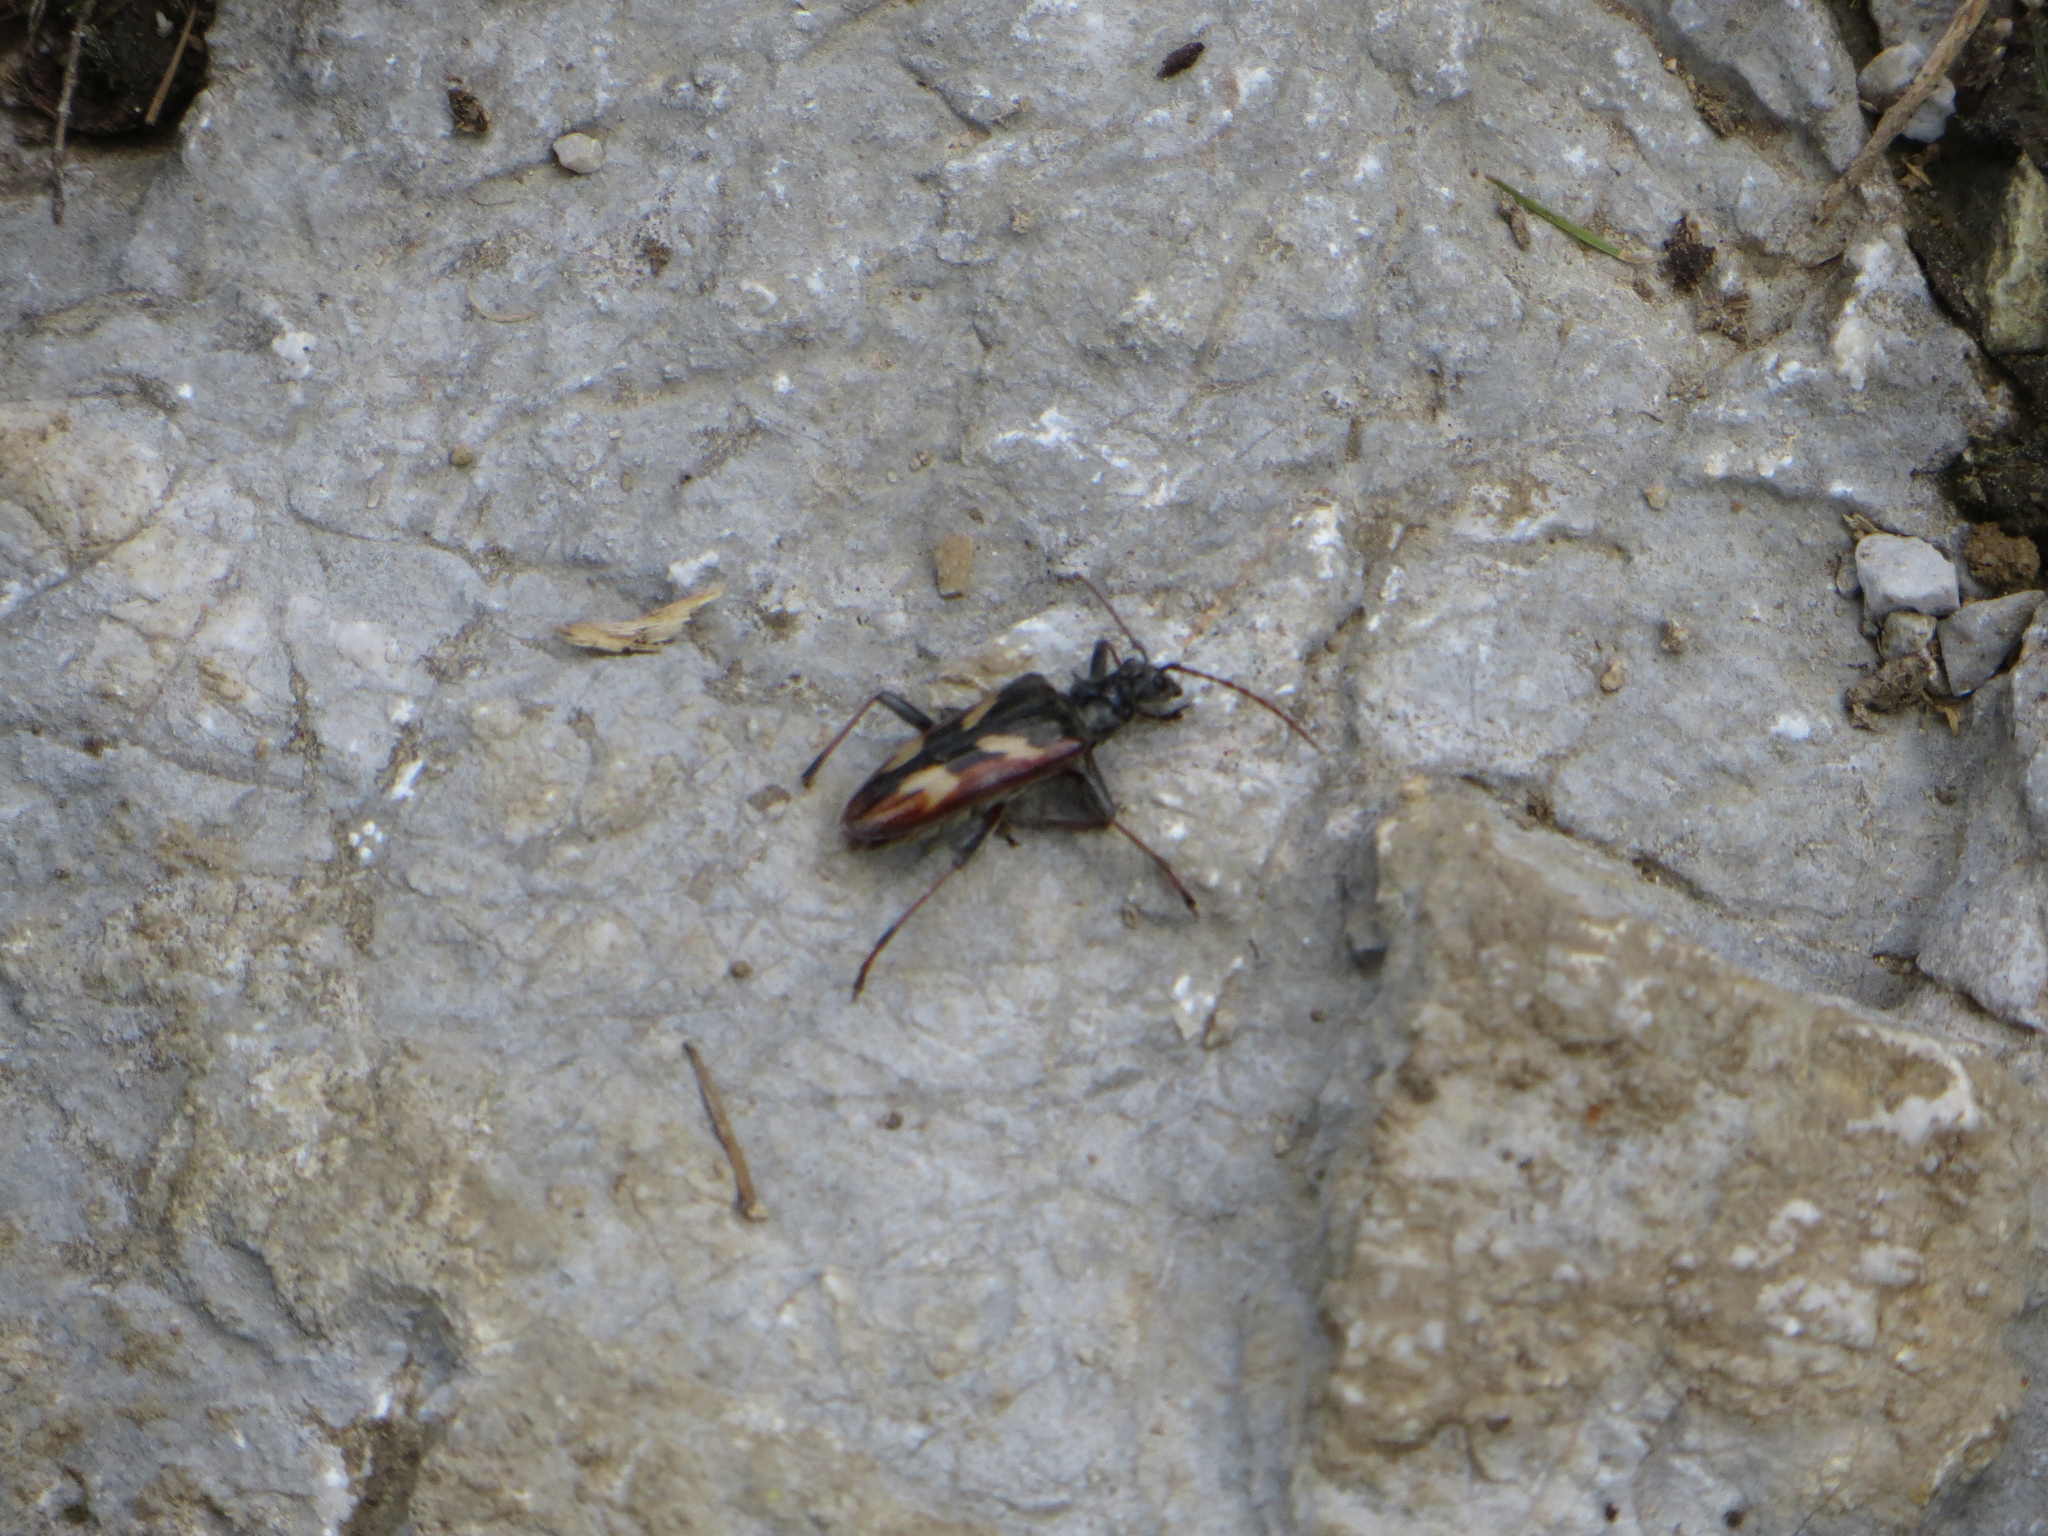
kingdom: Animalia
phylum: Arthropoda
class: Insecta
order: Coleoptera
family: Cerambycidae
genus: Rhagium
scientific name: Rhagium bifasciatum
